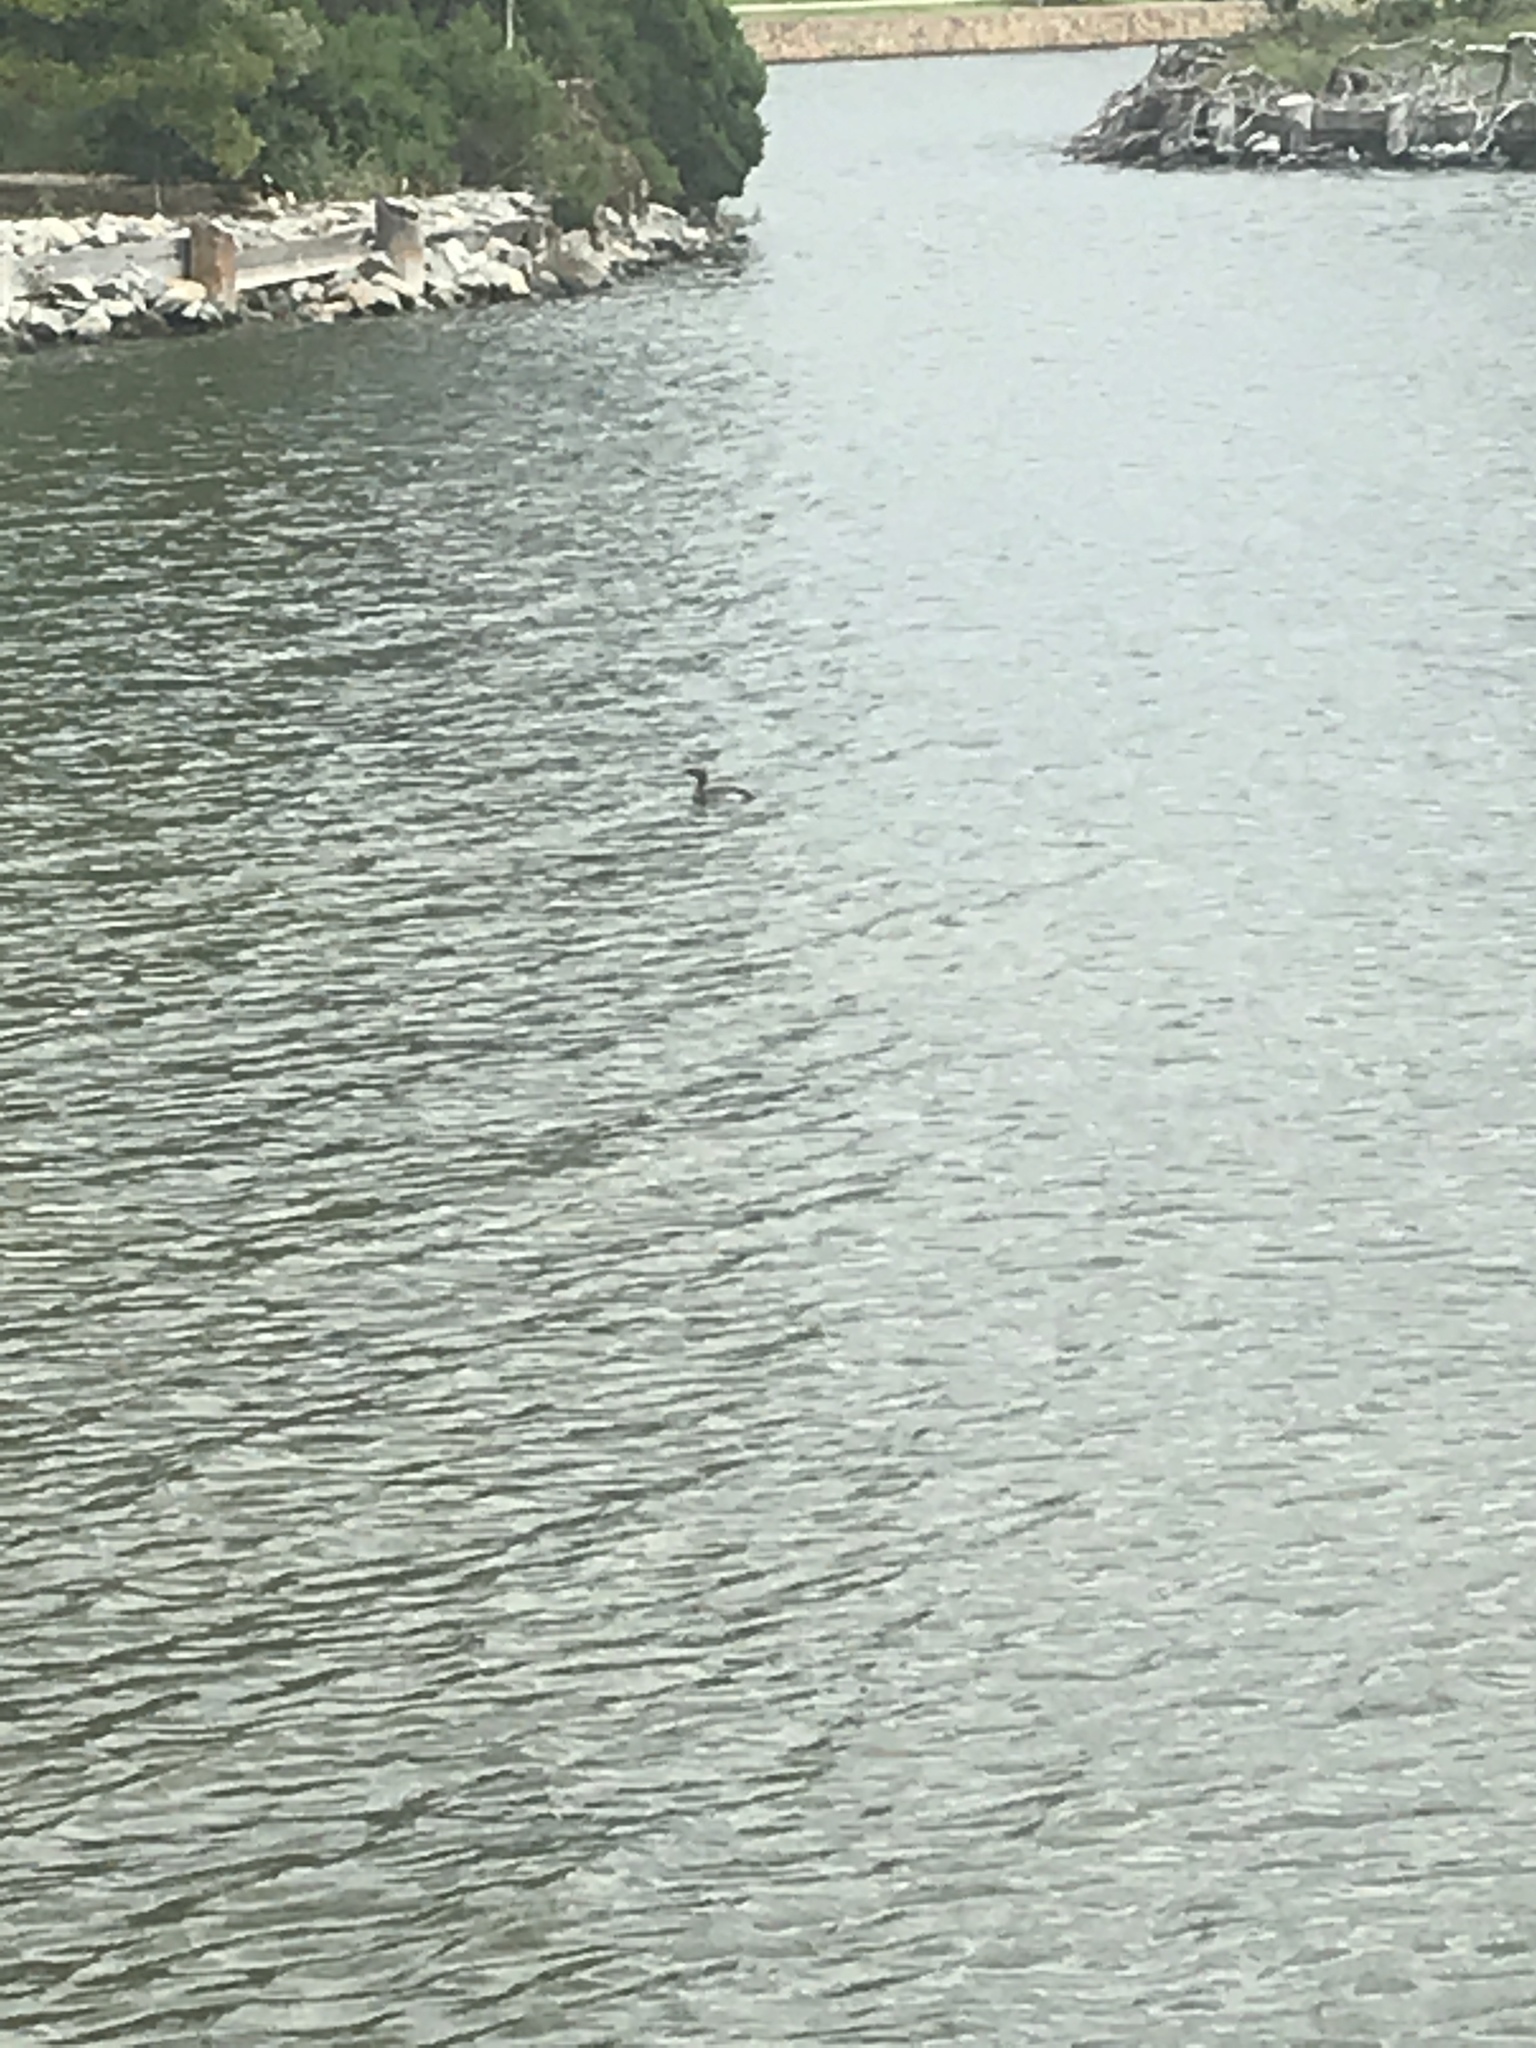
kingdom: Animalia
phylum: Chordata
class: Aves
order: Podicipediformes
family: Podicipedidae
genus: Podilymbus
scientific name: Podilymbus podiceps
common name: Pied-billed grebe
